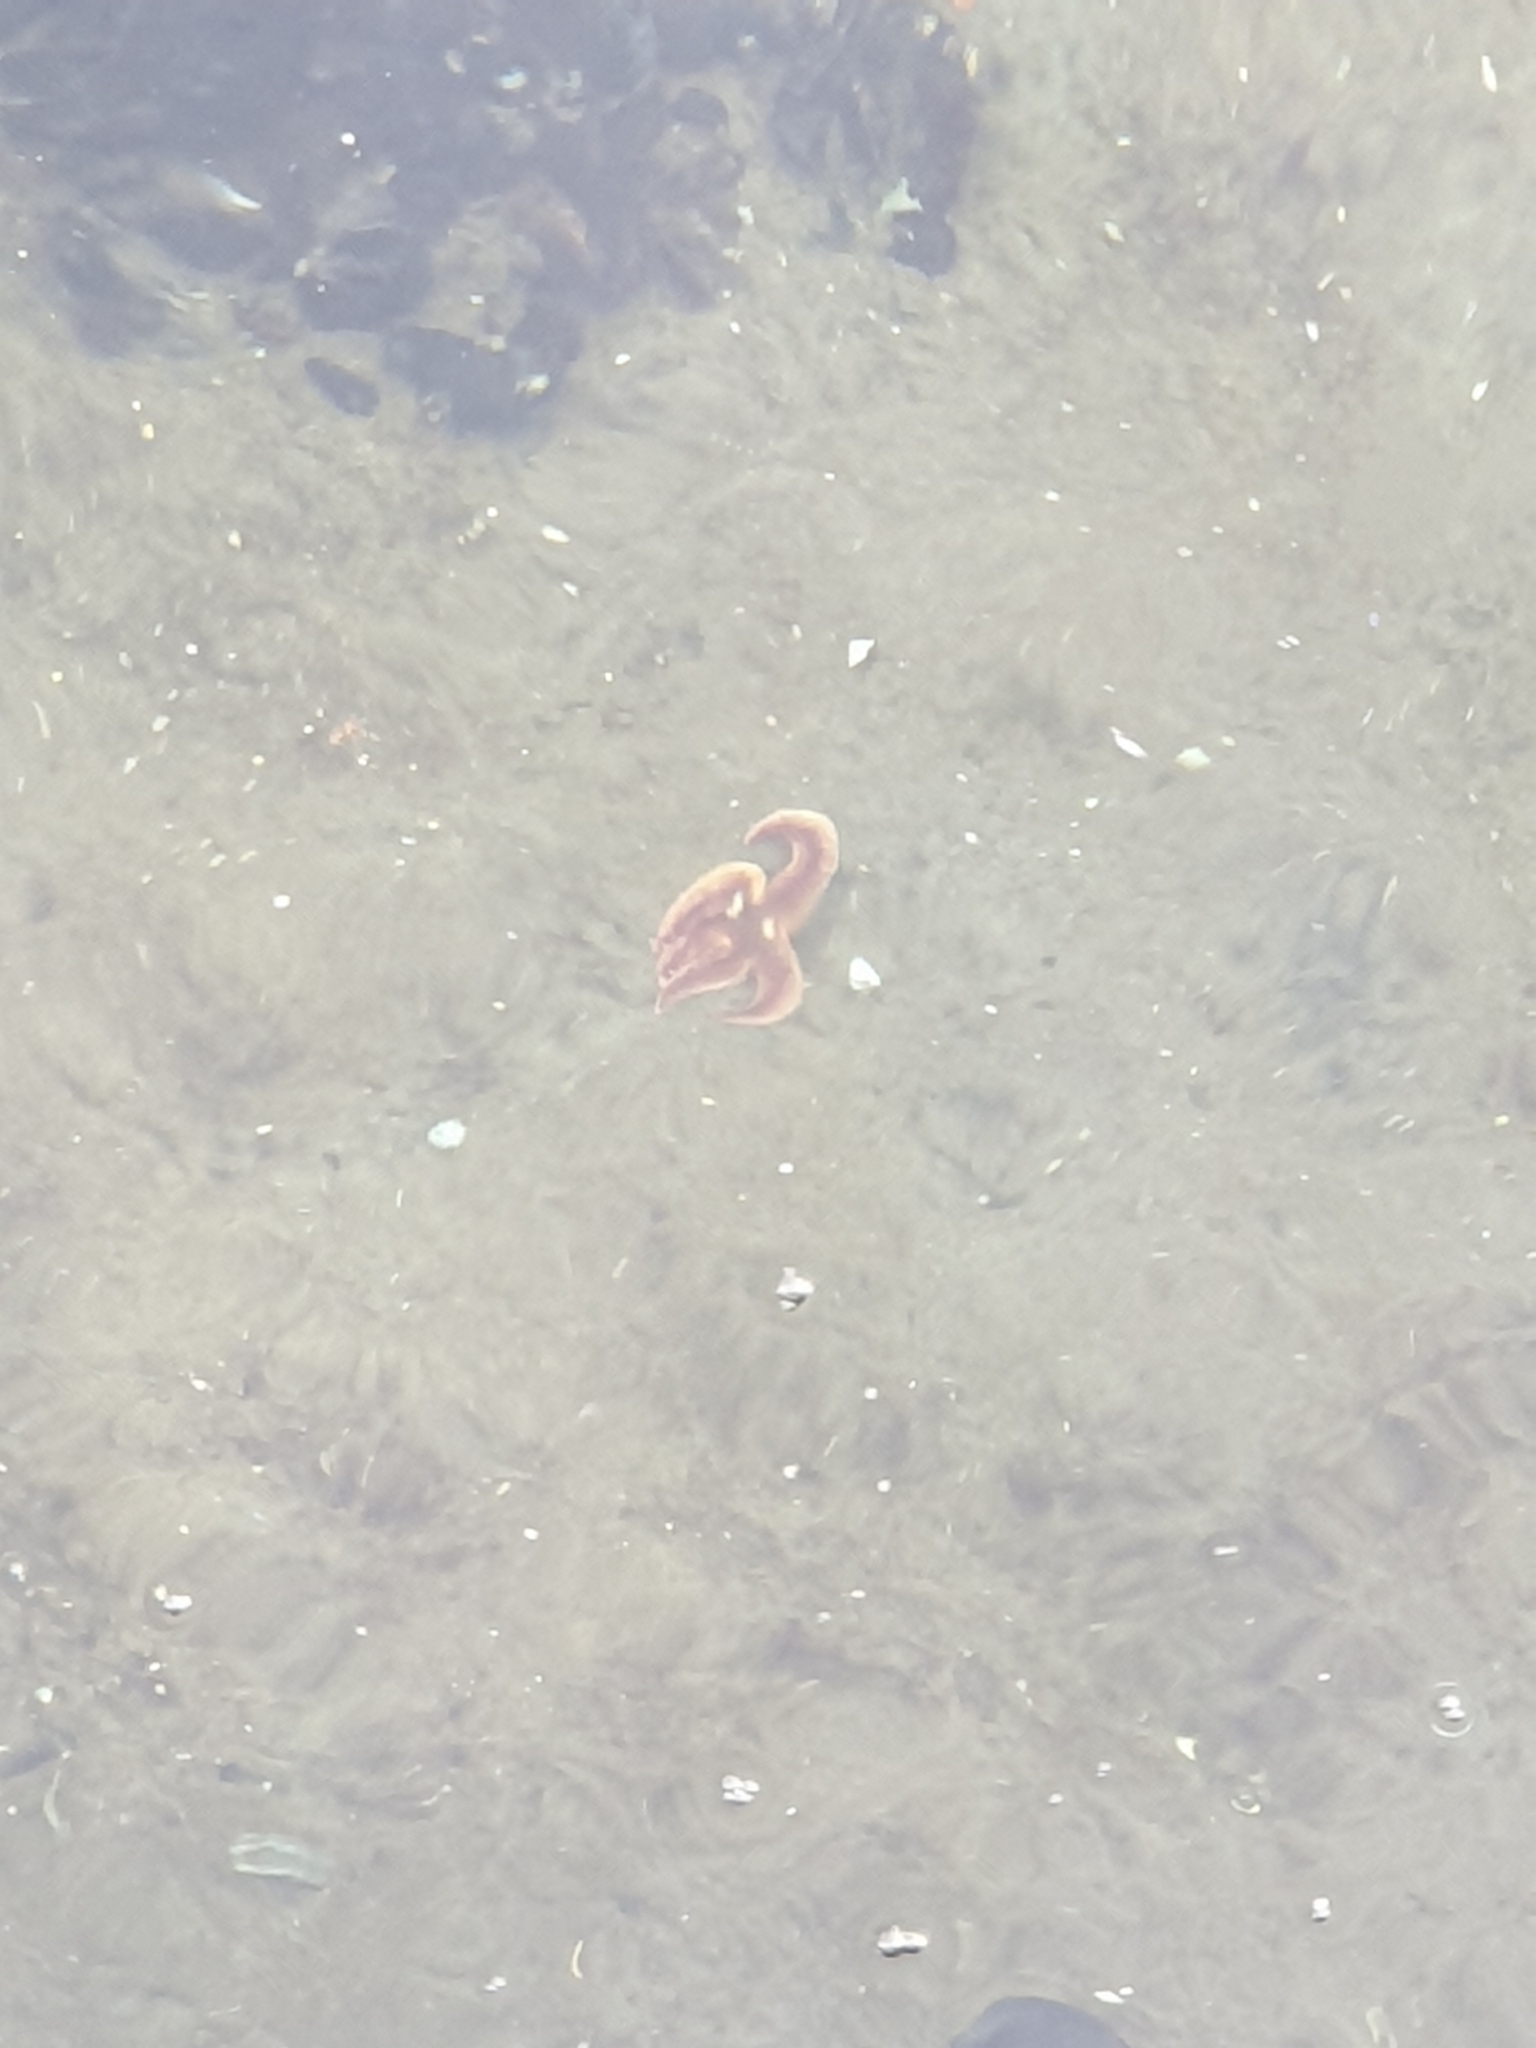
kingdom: Animalia
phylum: Echinodermata
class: Asteroidea
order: Forcipulatida
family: Asteriidae
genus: Asterias
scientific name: Asterias rubens
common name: Common starfish
